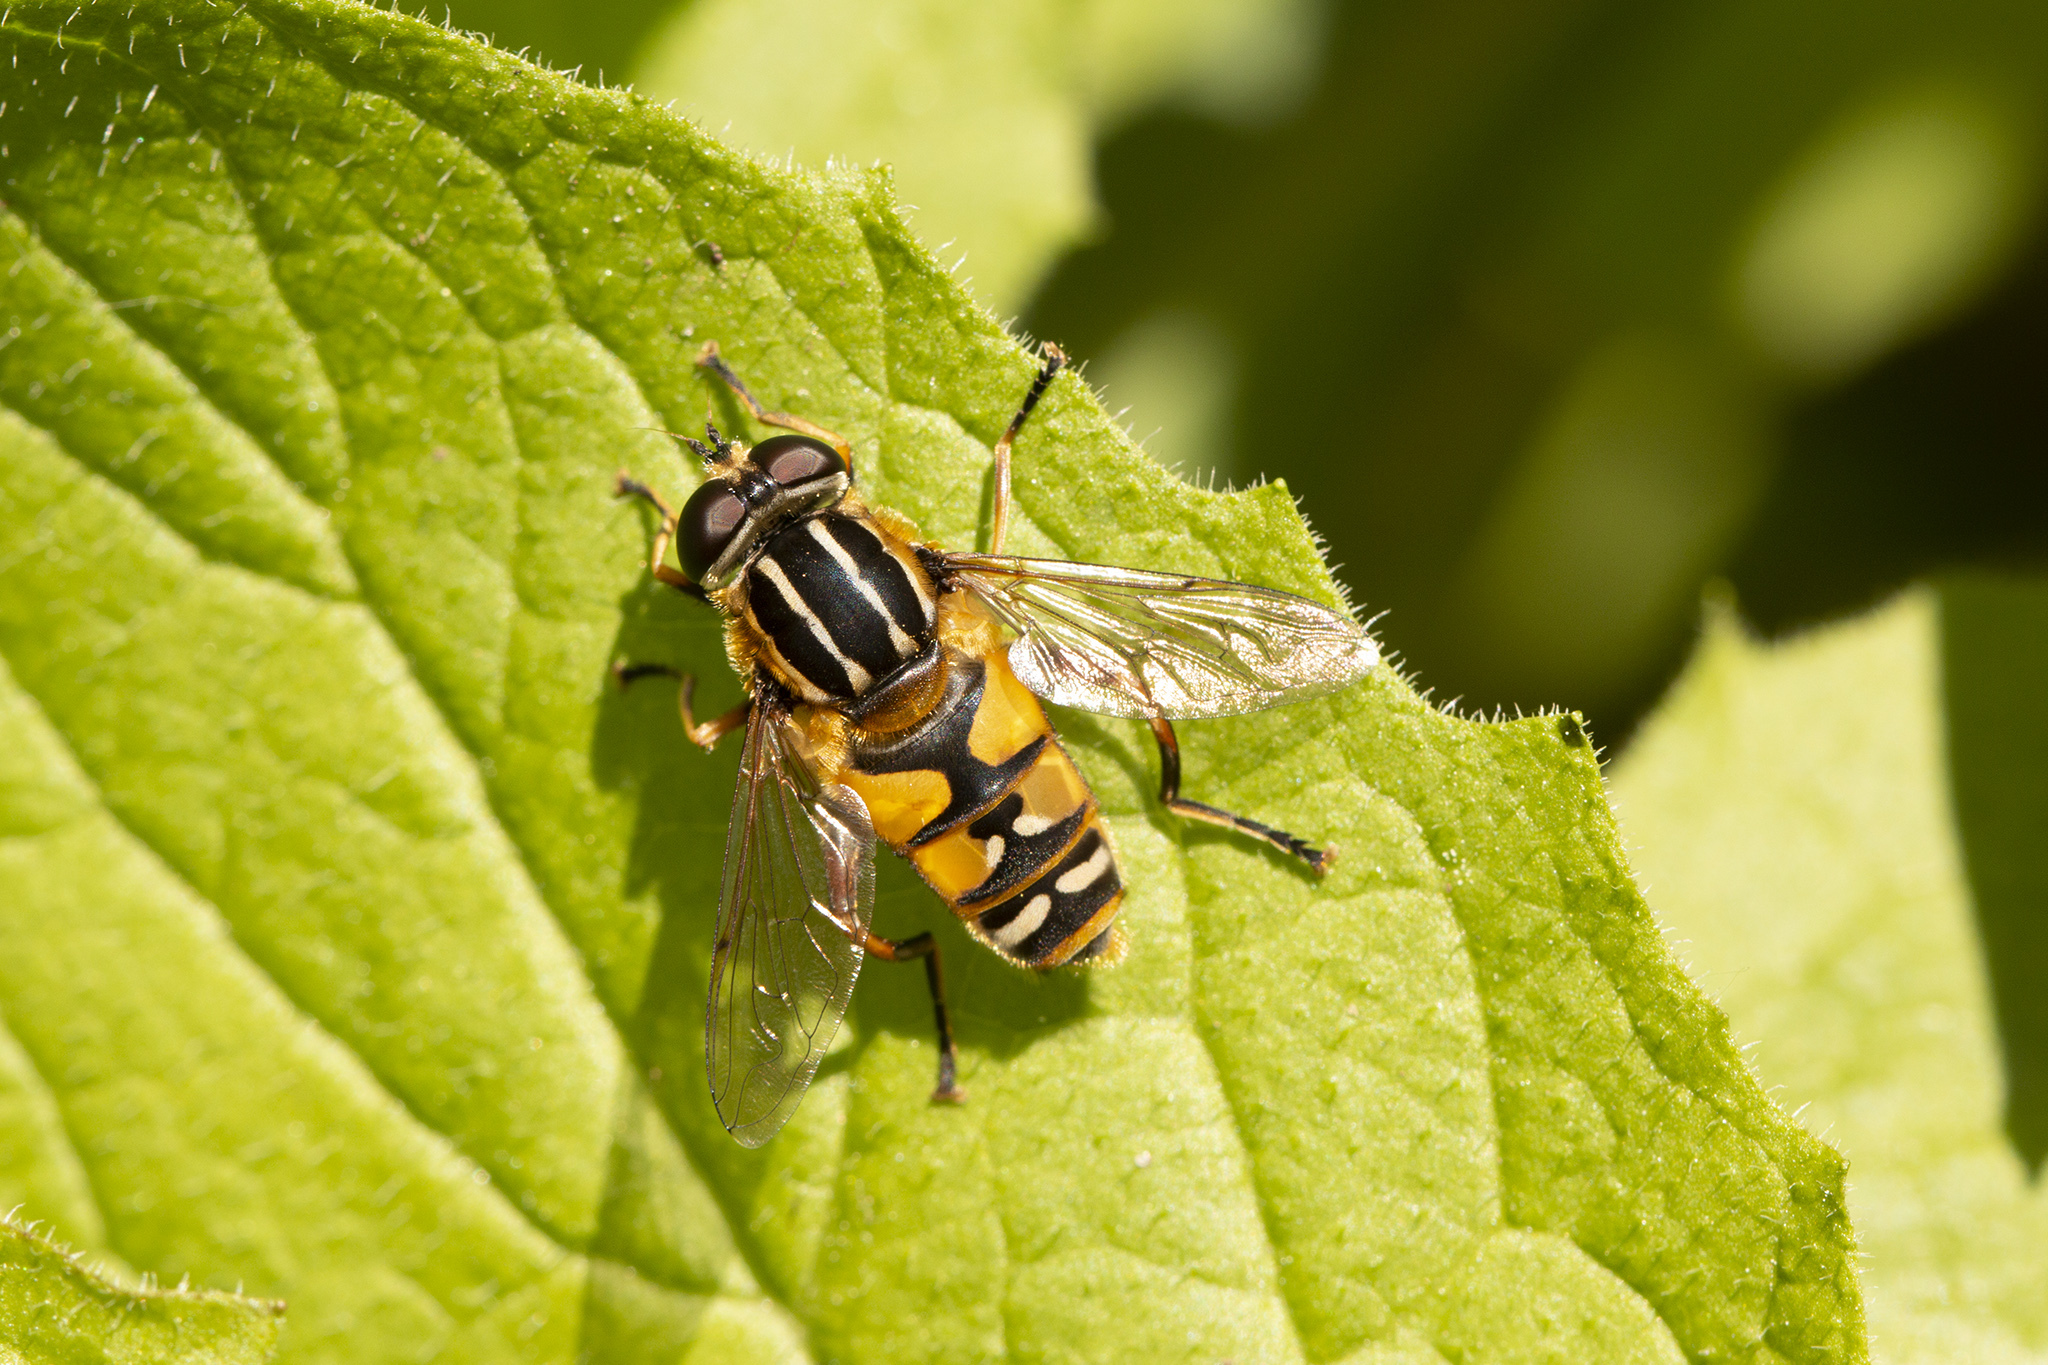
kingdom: Animalia
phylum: Arthropoda
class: Insecta
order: Diptera
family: Syrphidae
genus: Helophilus
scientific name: Helophilus pendulus
